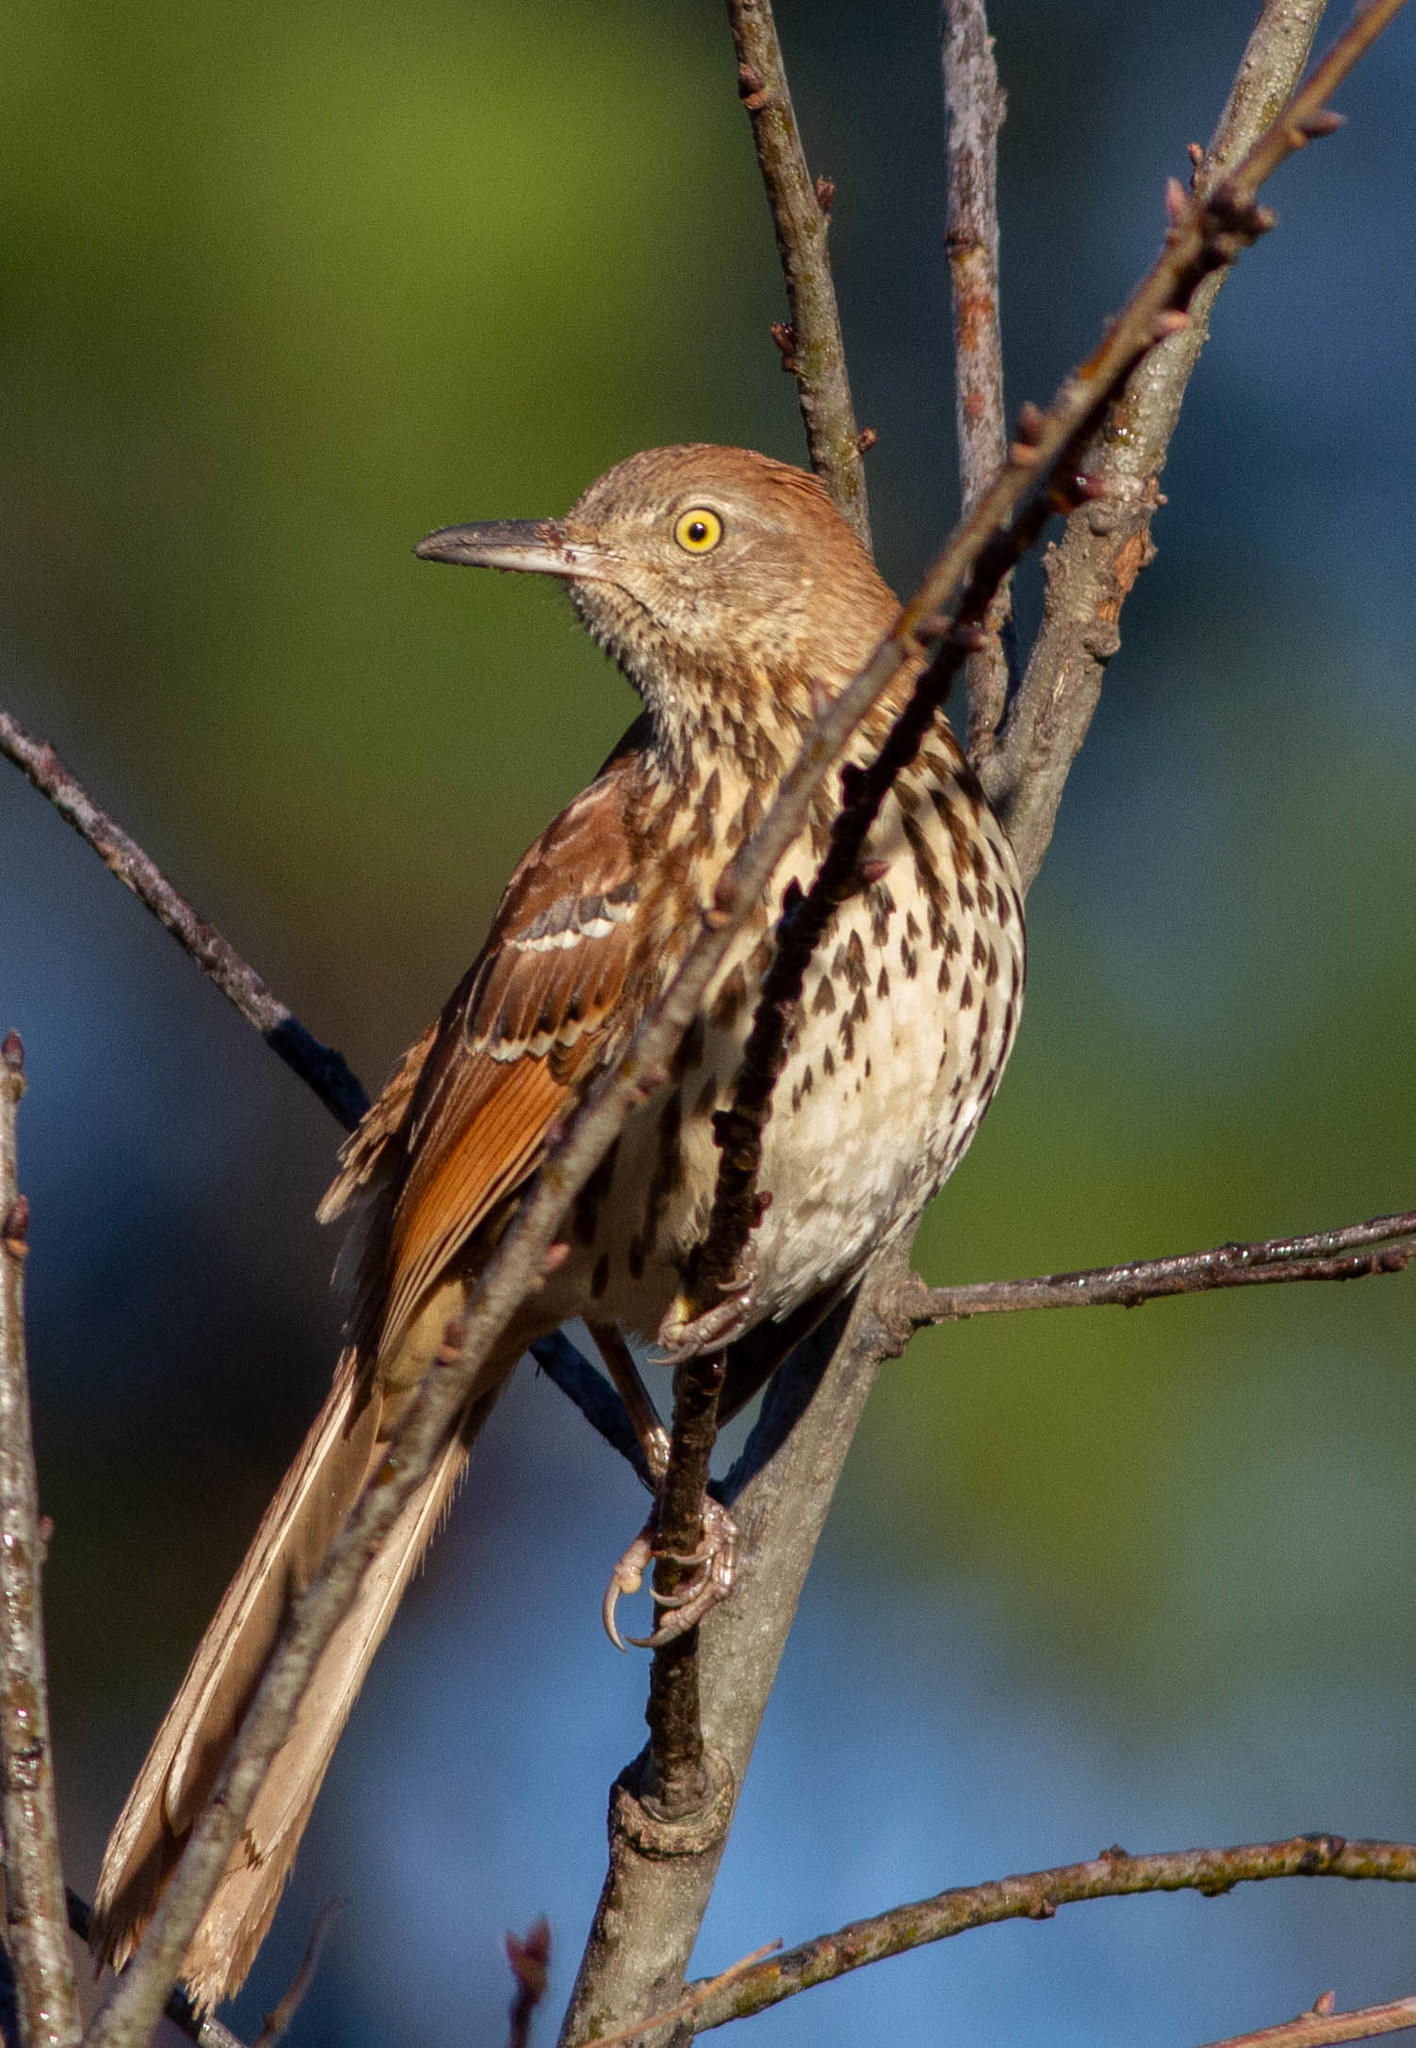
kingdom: Animalia
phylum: Chordata
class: Aves
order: Passeriformes
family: Mimidae
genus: Toxostoma
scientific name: Toxostoma rufum
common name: Brown thrasher
